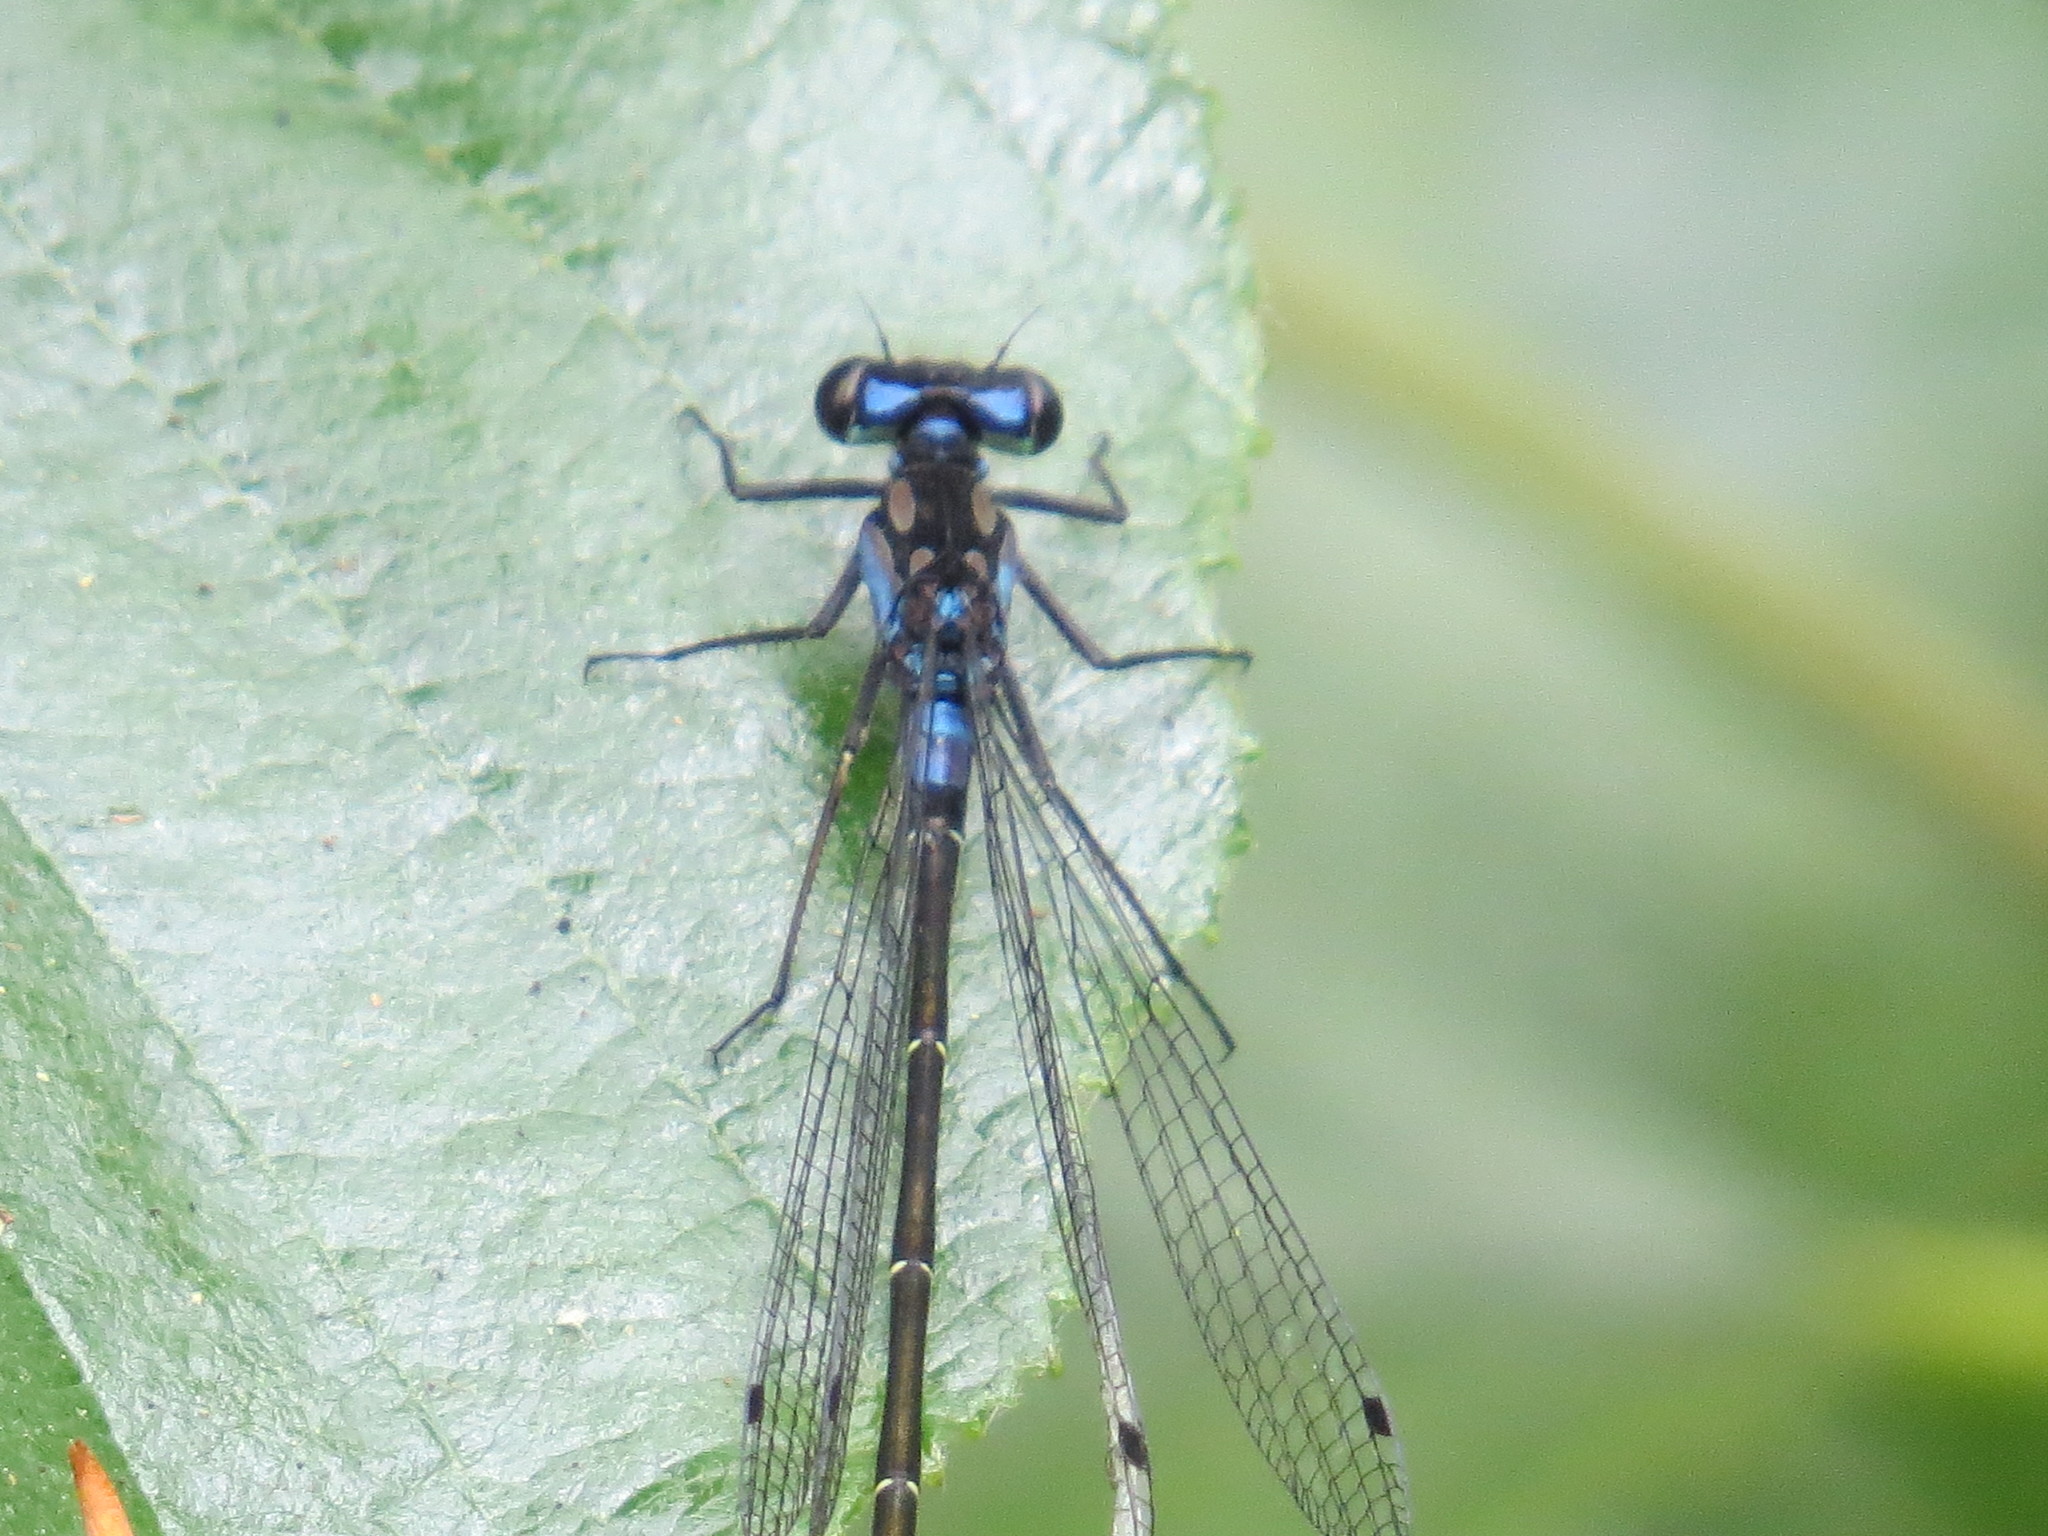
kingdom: Animalia
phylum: Arthropoda
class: Insecta
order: Odonata
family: Coenagrionidae
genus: Zoniagrion
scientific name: Zoniagrion exclamationis
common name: Exclamation damsel
